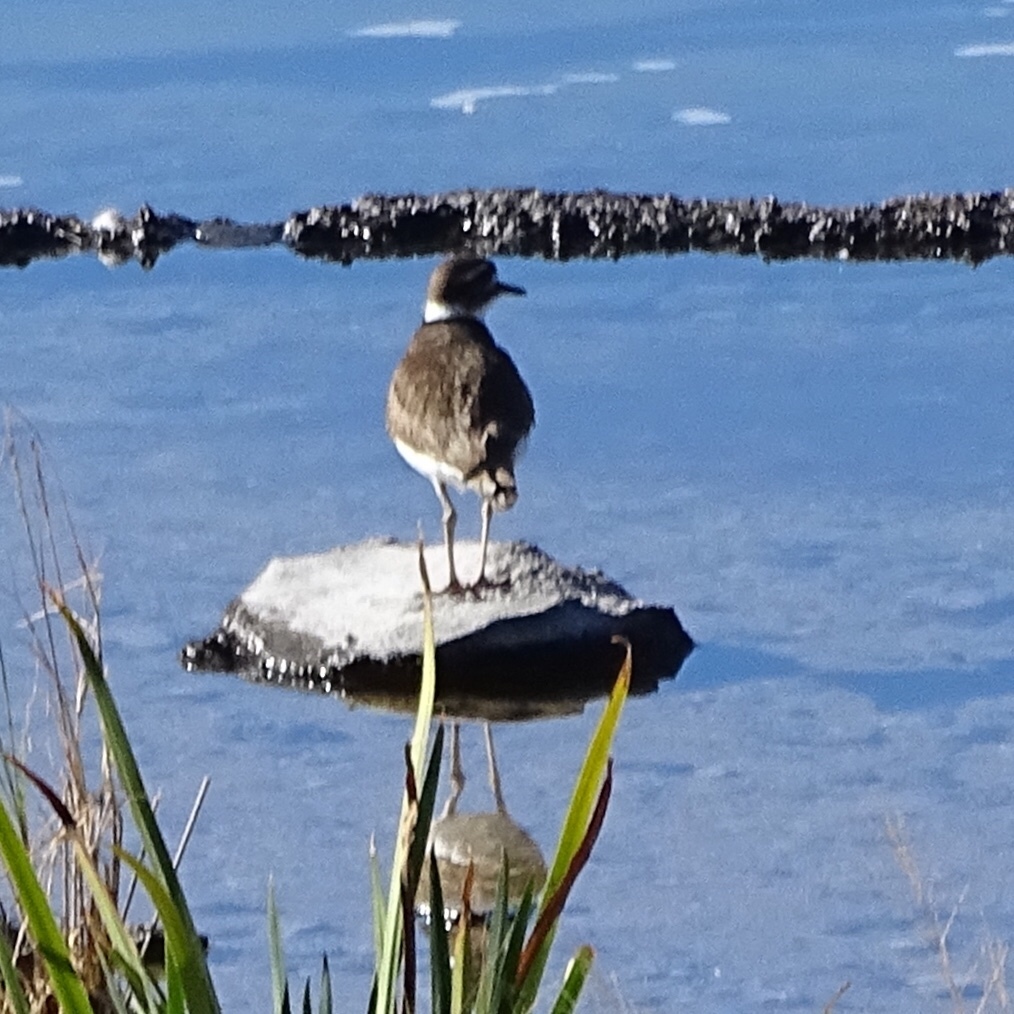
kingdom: Animalia
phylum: Chordata
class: Aves
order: Charadriiformes
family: Charadriidae
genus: Charadrius
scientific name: Charadrius vociferus
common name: Killdeer
